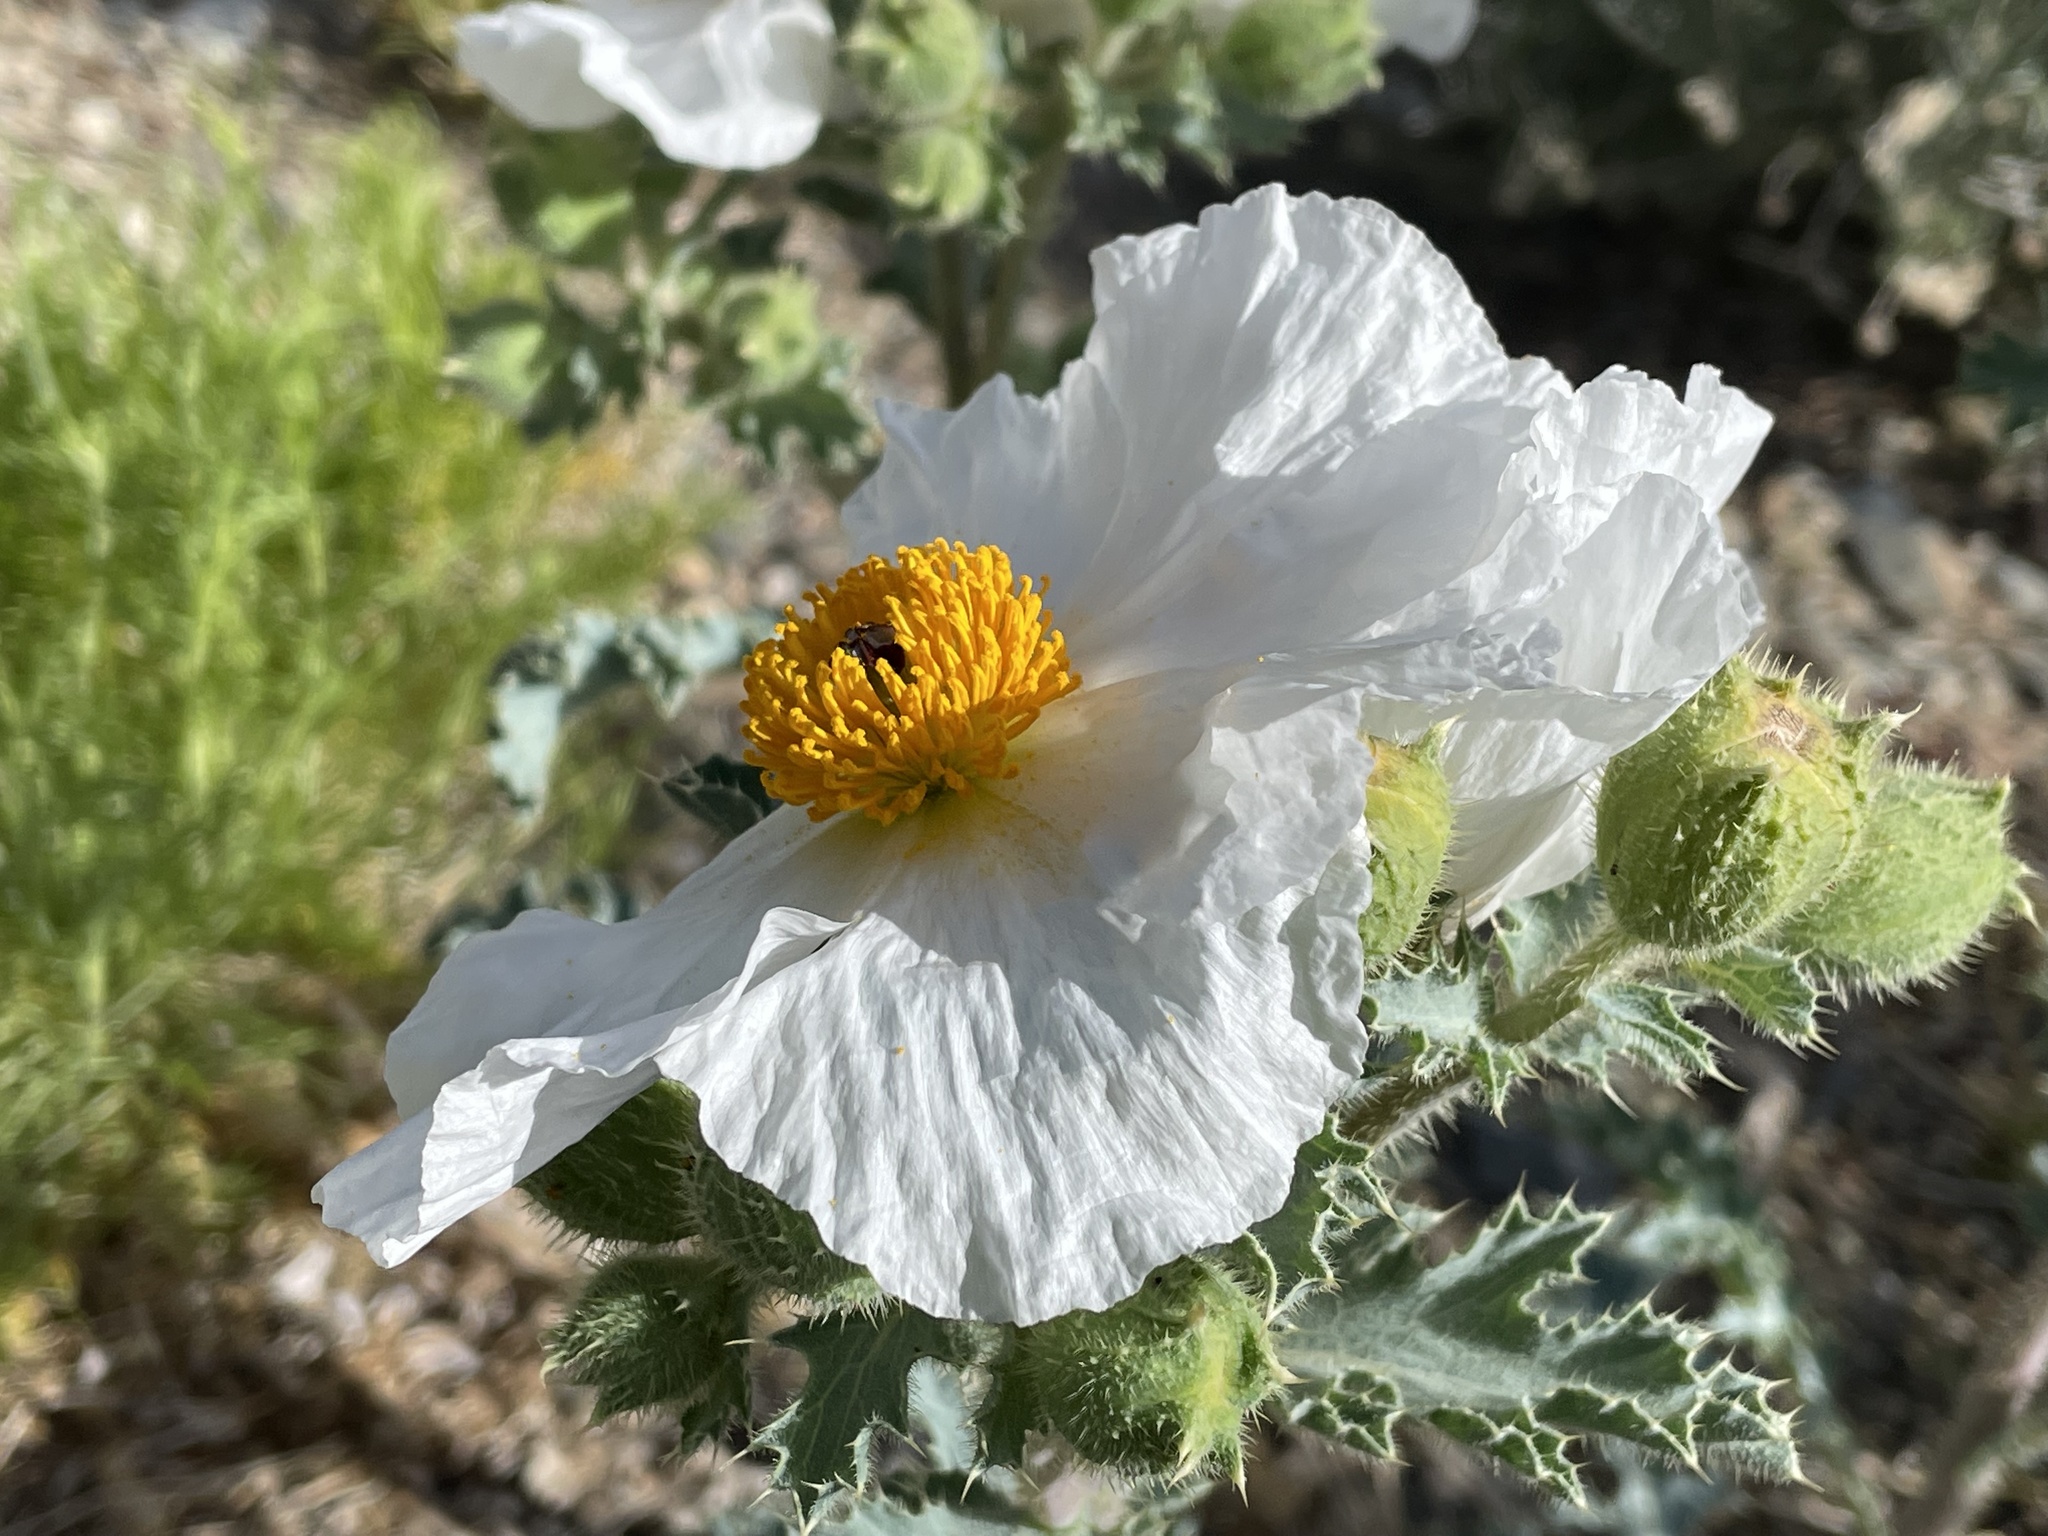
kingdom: Plantae
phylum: Tracheophyta
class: Magnoliopsida
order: Ranunculales
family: Papaveraceae
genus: Argemone
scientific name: Argemone munita
